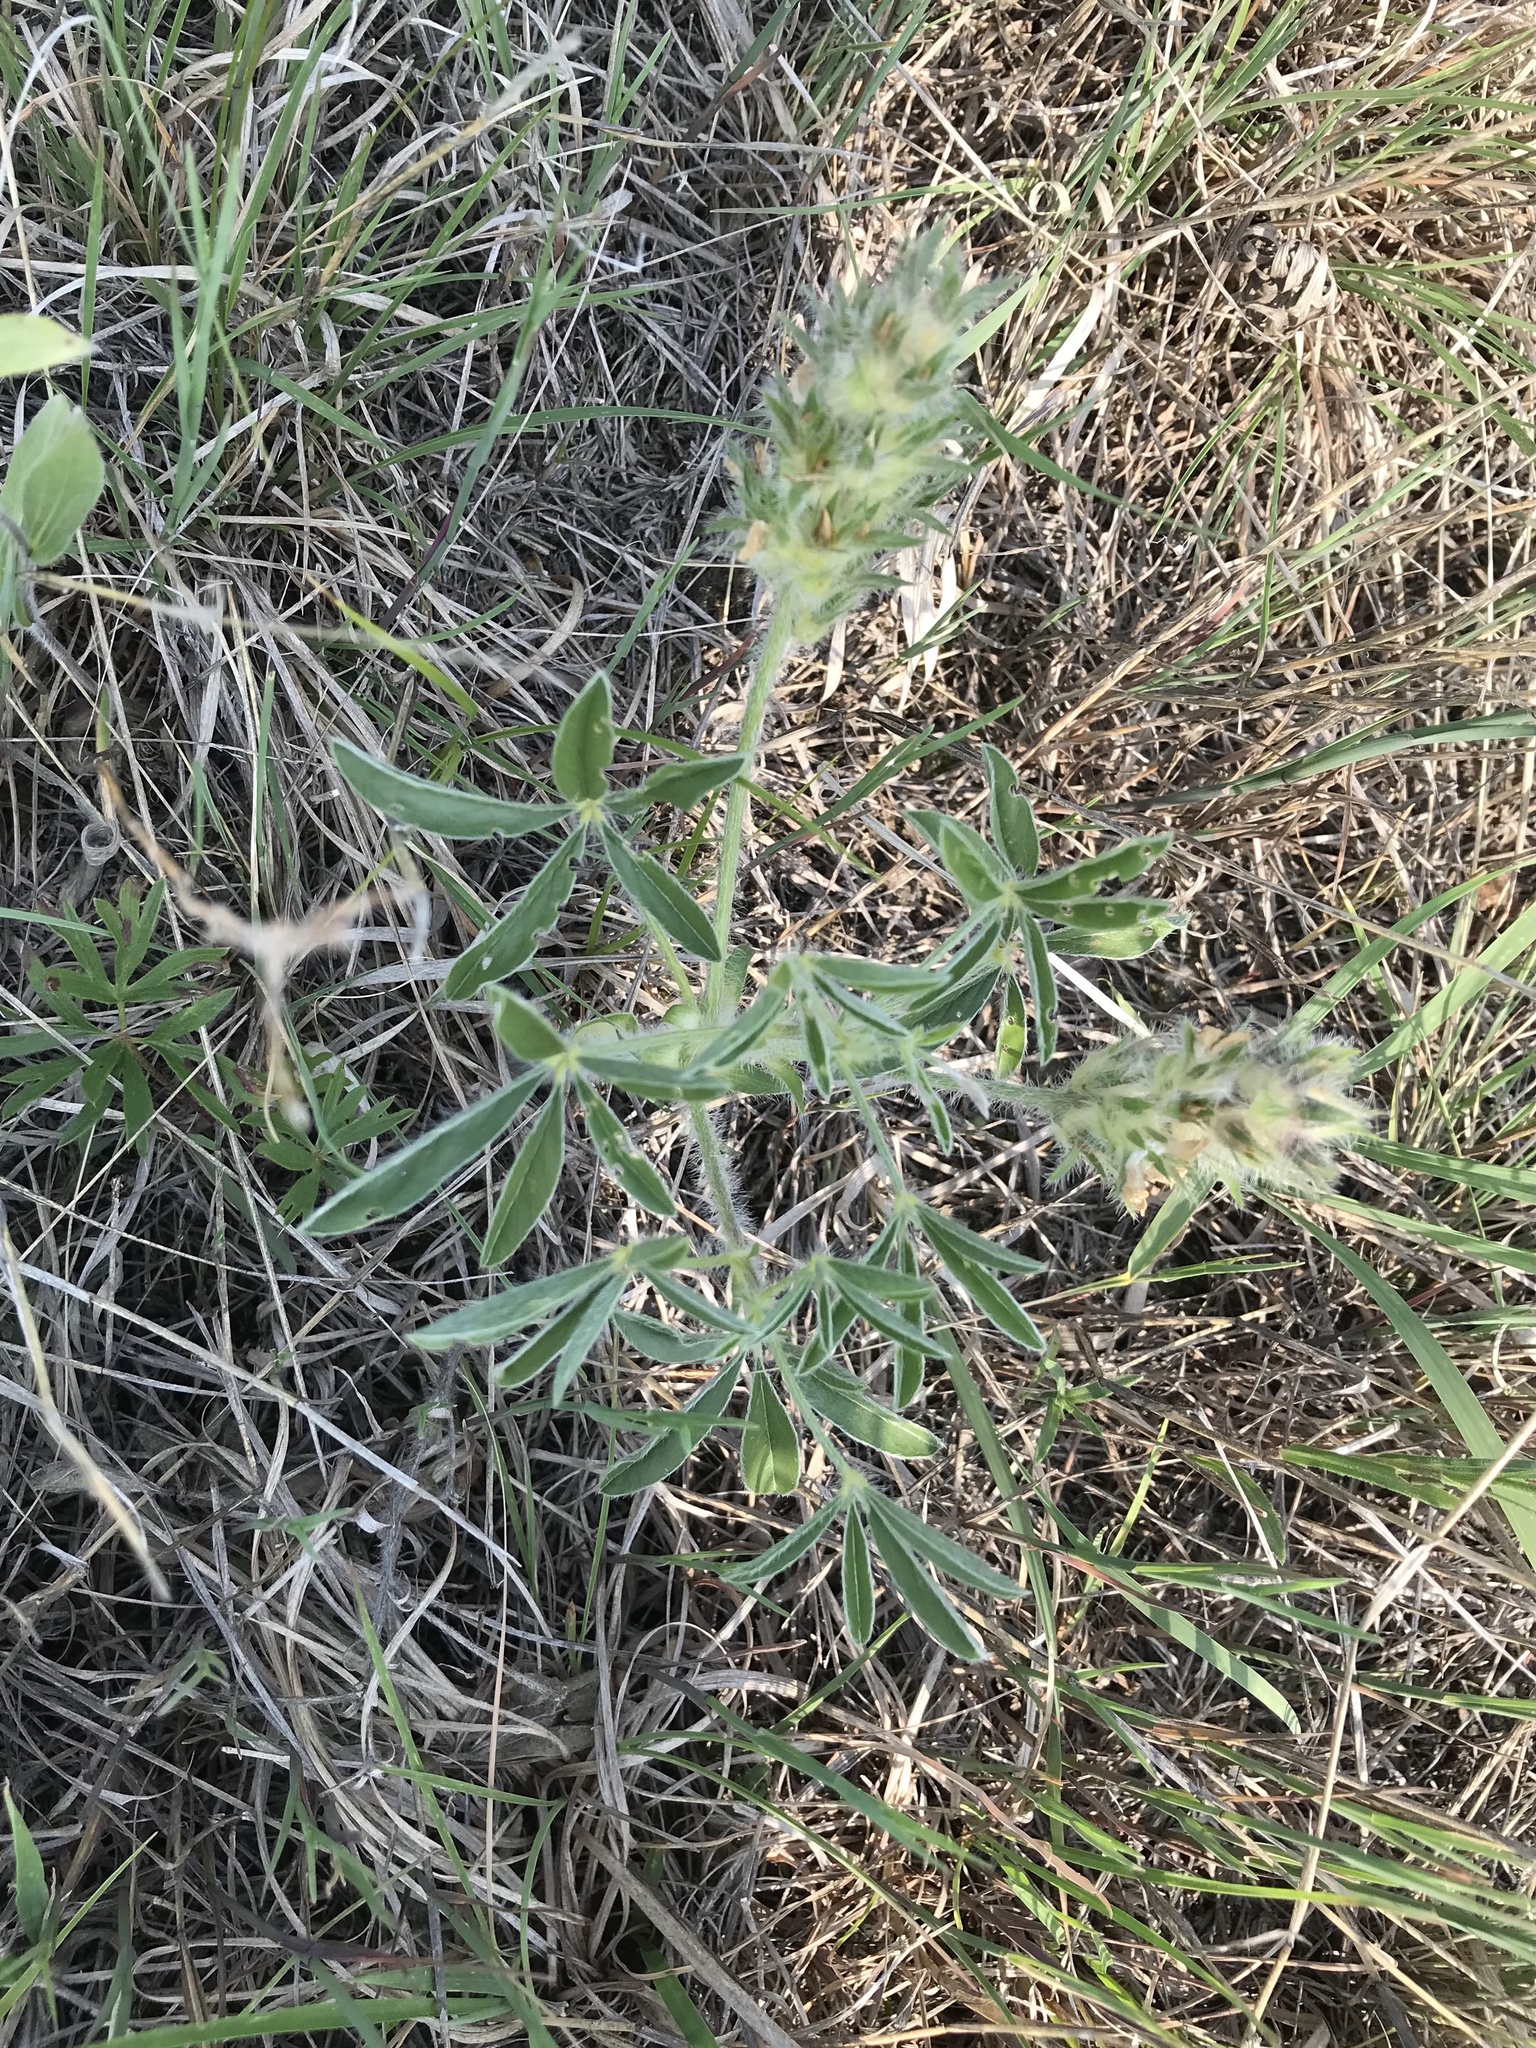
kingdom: Plantae
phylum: Tracheophyta
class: Magnoliopsida
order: Fabales
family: Fabaceae
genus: Pediomelum
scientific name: Pediomelum esculentum
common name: Indian-turnip
